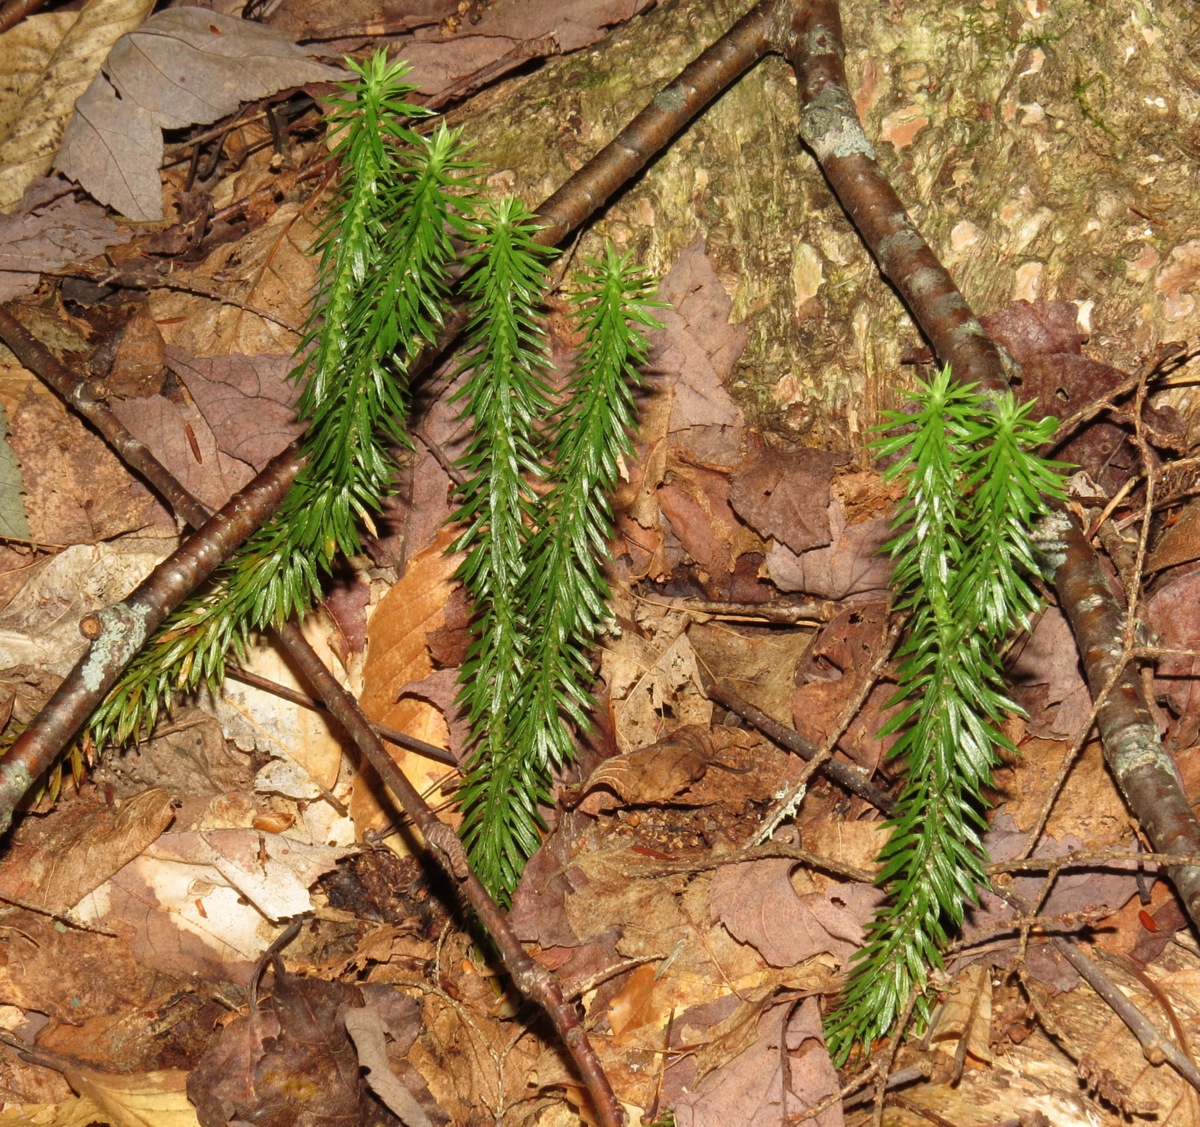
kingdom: Plantae
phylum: Tracheophyta
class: Lycopodiopsida
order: Lycopodiales
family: Lycopodiaceae
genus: Huperzia
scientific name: Huperzia lucidula
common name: Shining clubmoss
